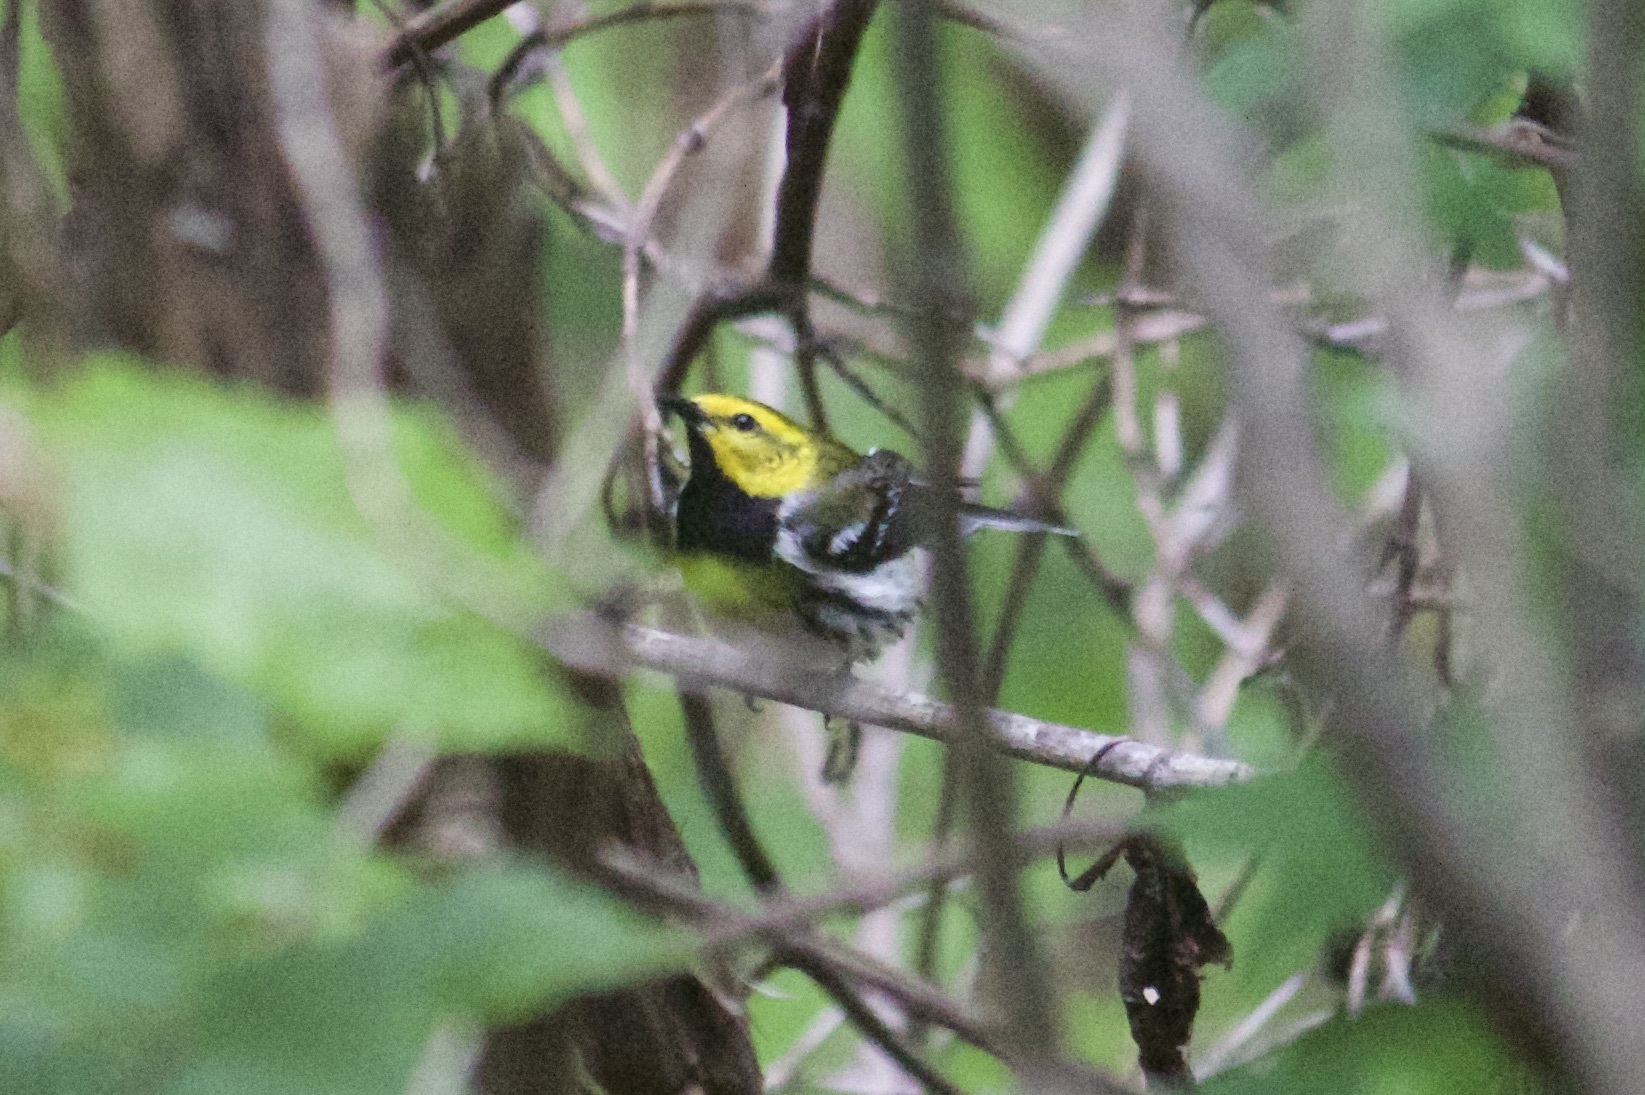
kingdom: Animalia
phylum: Chordata
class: Aves
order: Passeriformes
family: Parulidae
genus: Setophaga
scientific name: Setophaga virens
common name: Black-throated green warbler
